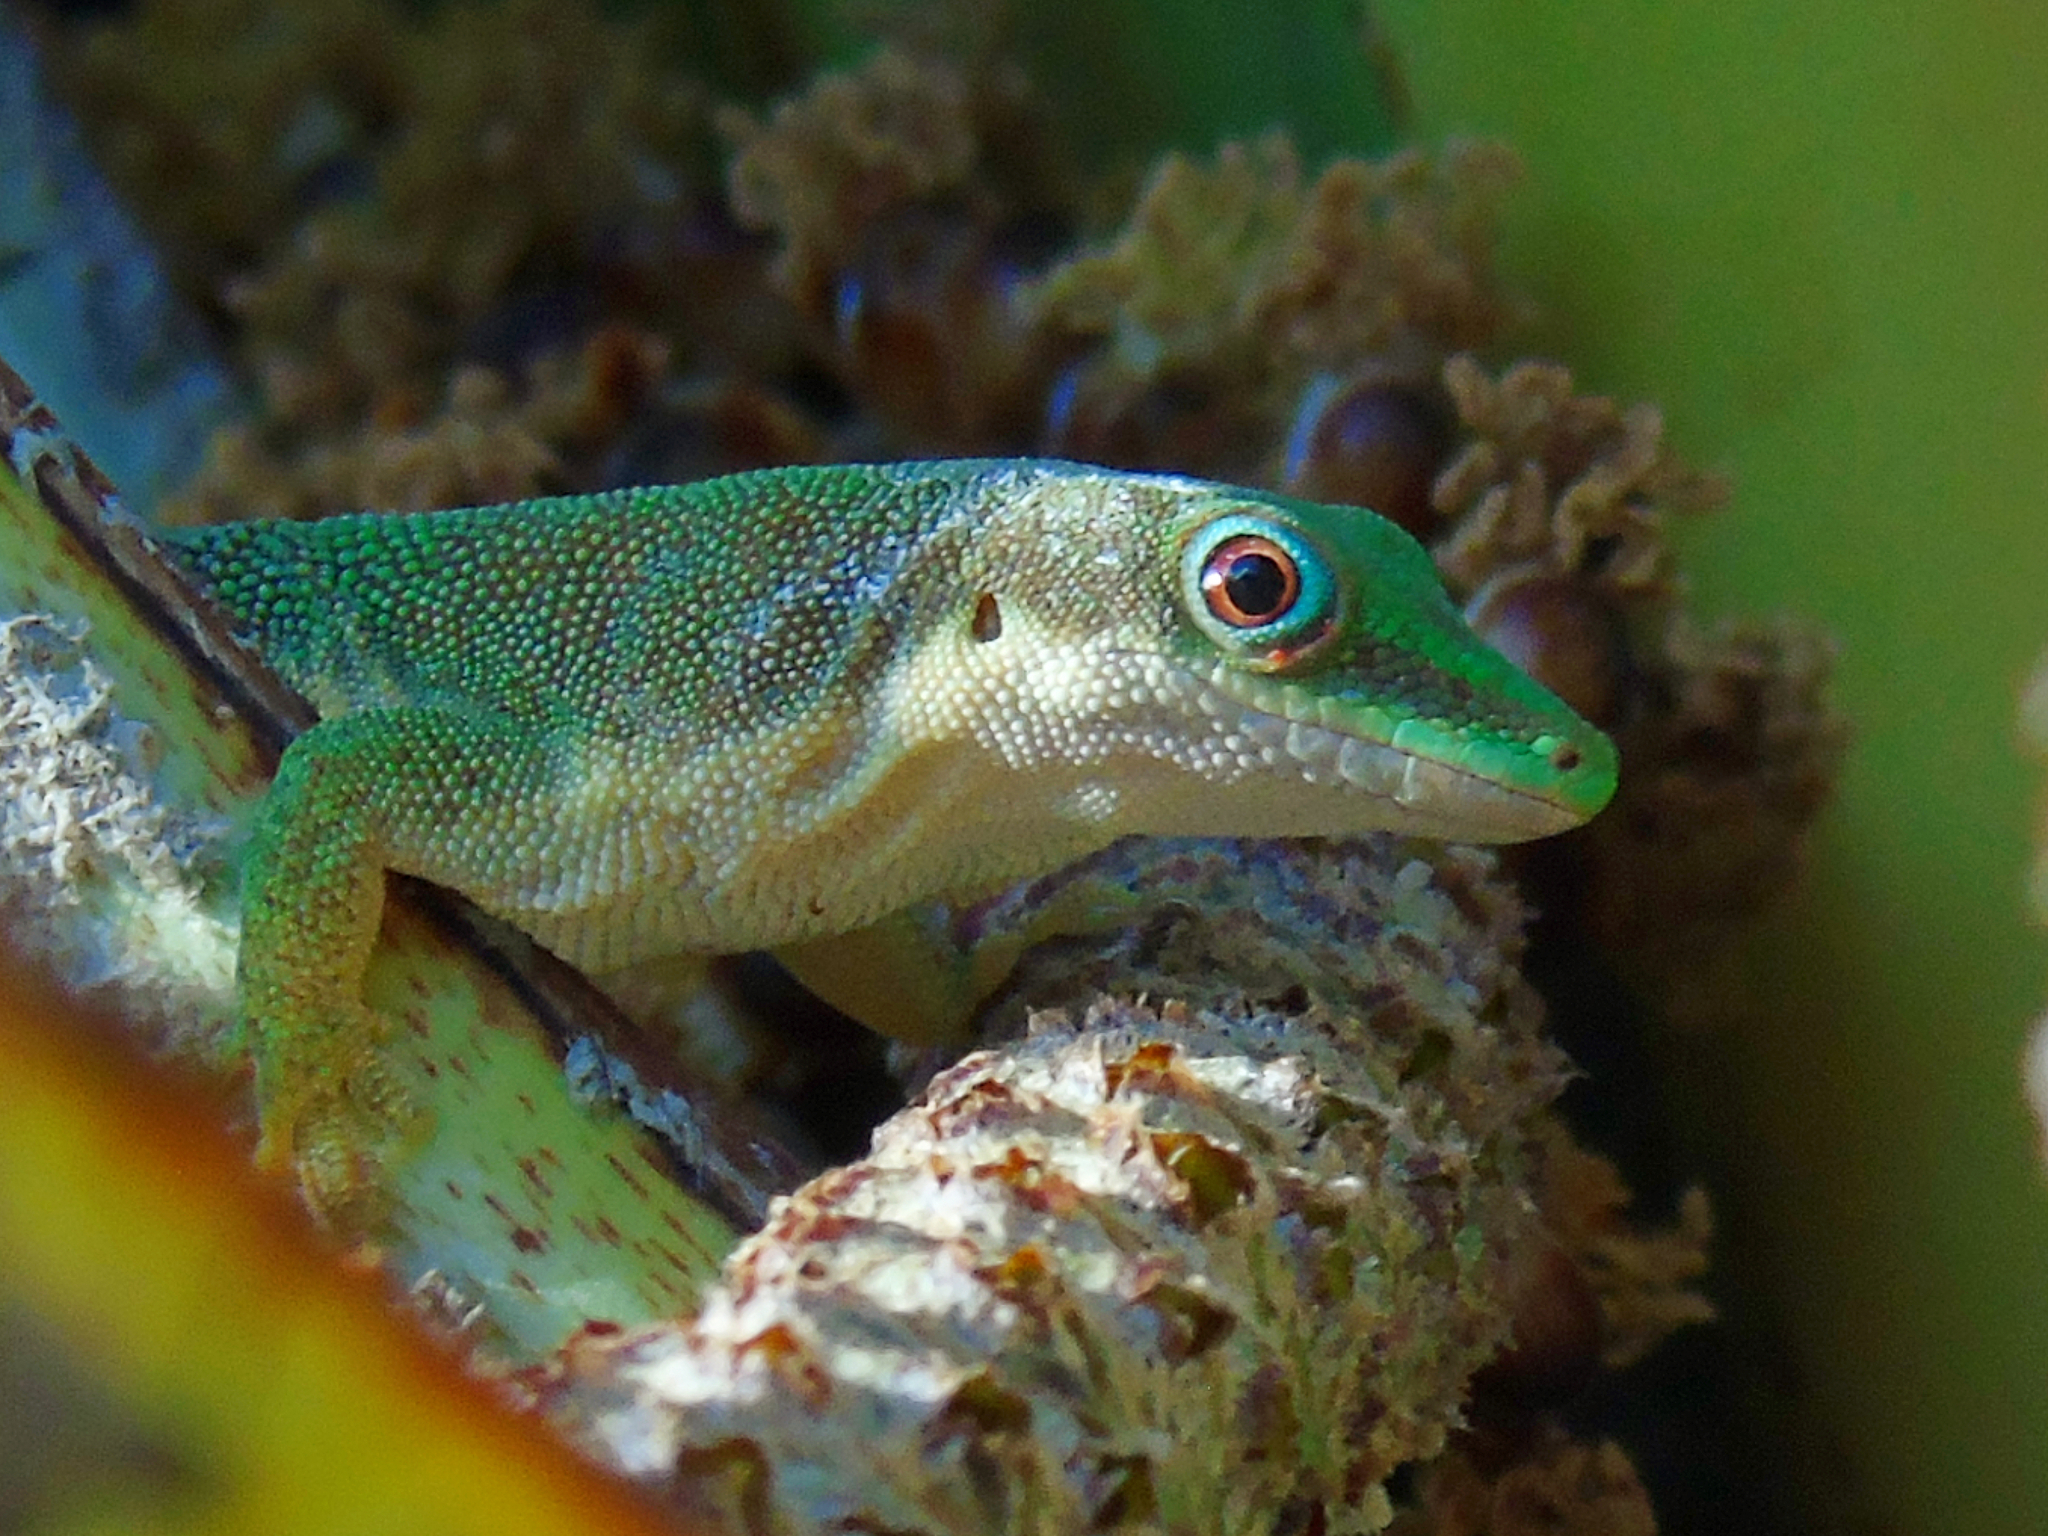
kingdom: Animalia
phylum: Chordata
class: Squamata
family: Gekkonidae
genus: Phelsuma
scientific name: Phelsuma dubia
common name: Zanzibar day gecko
